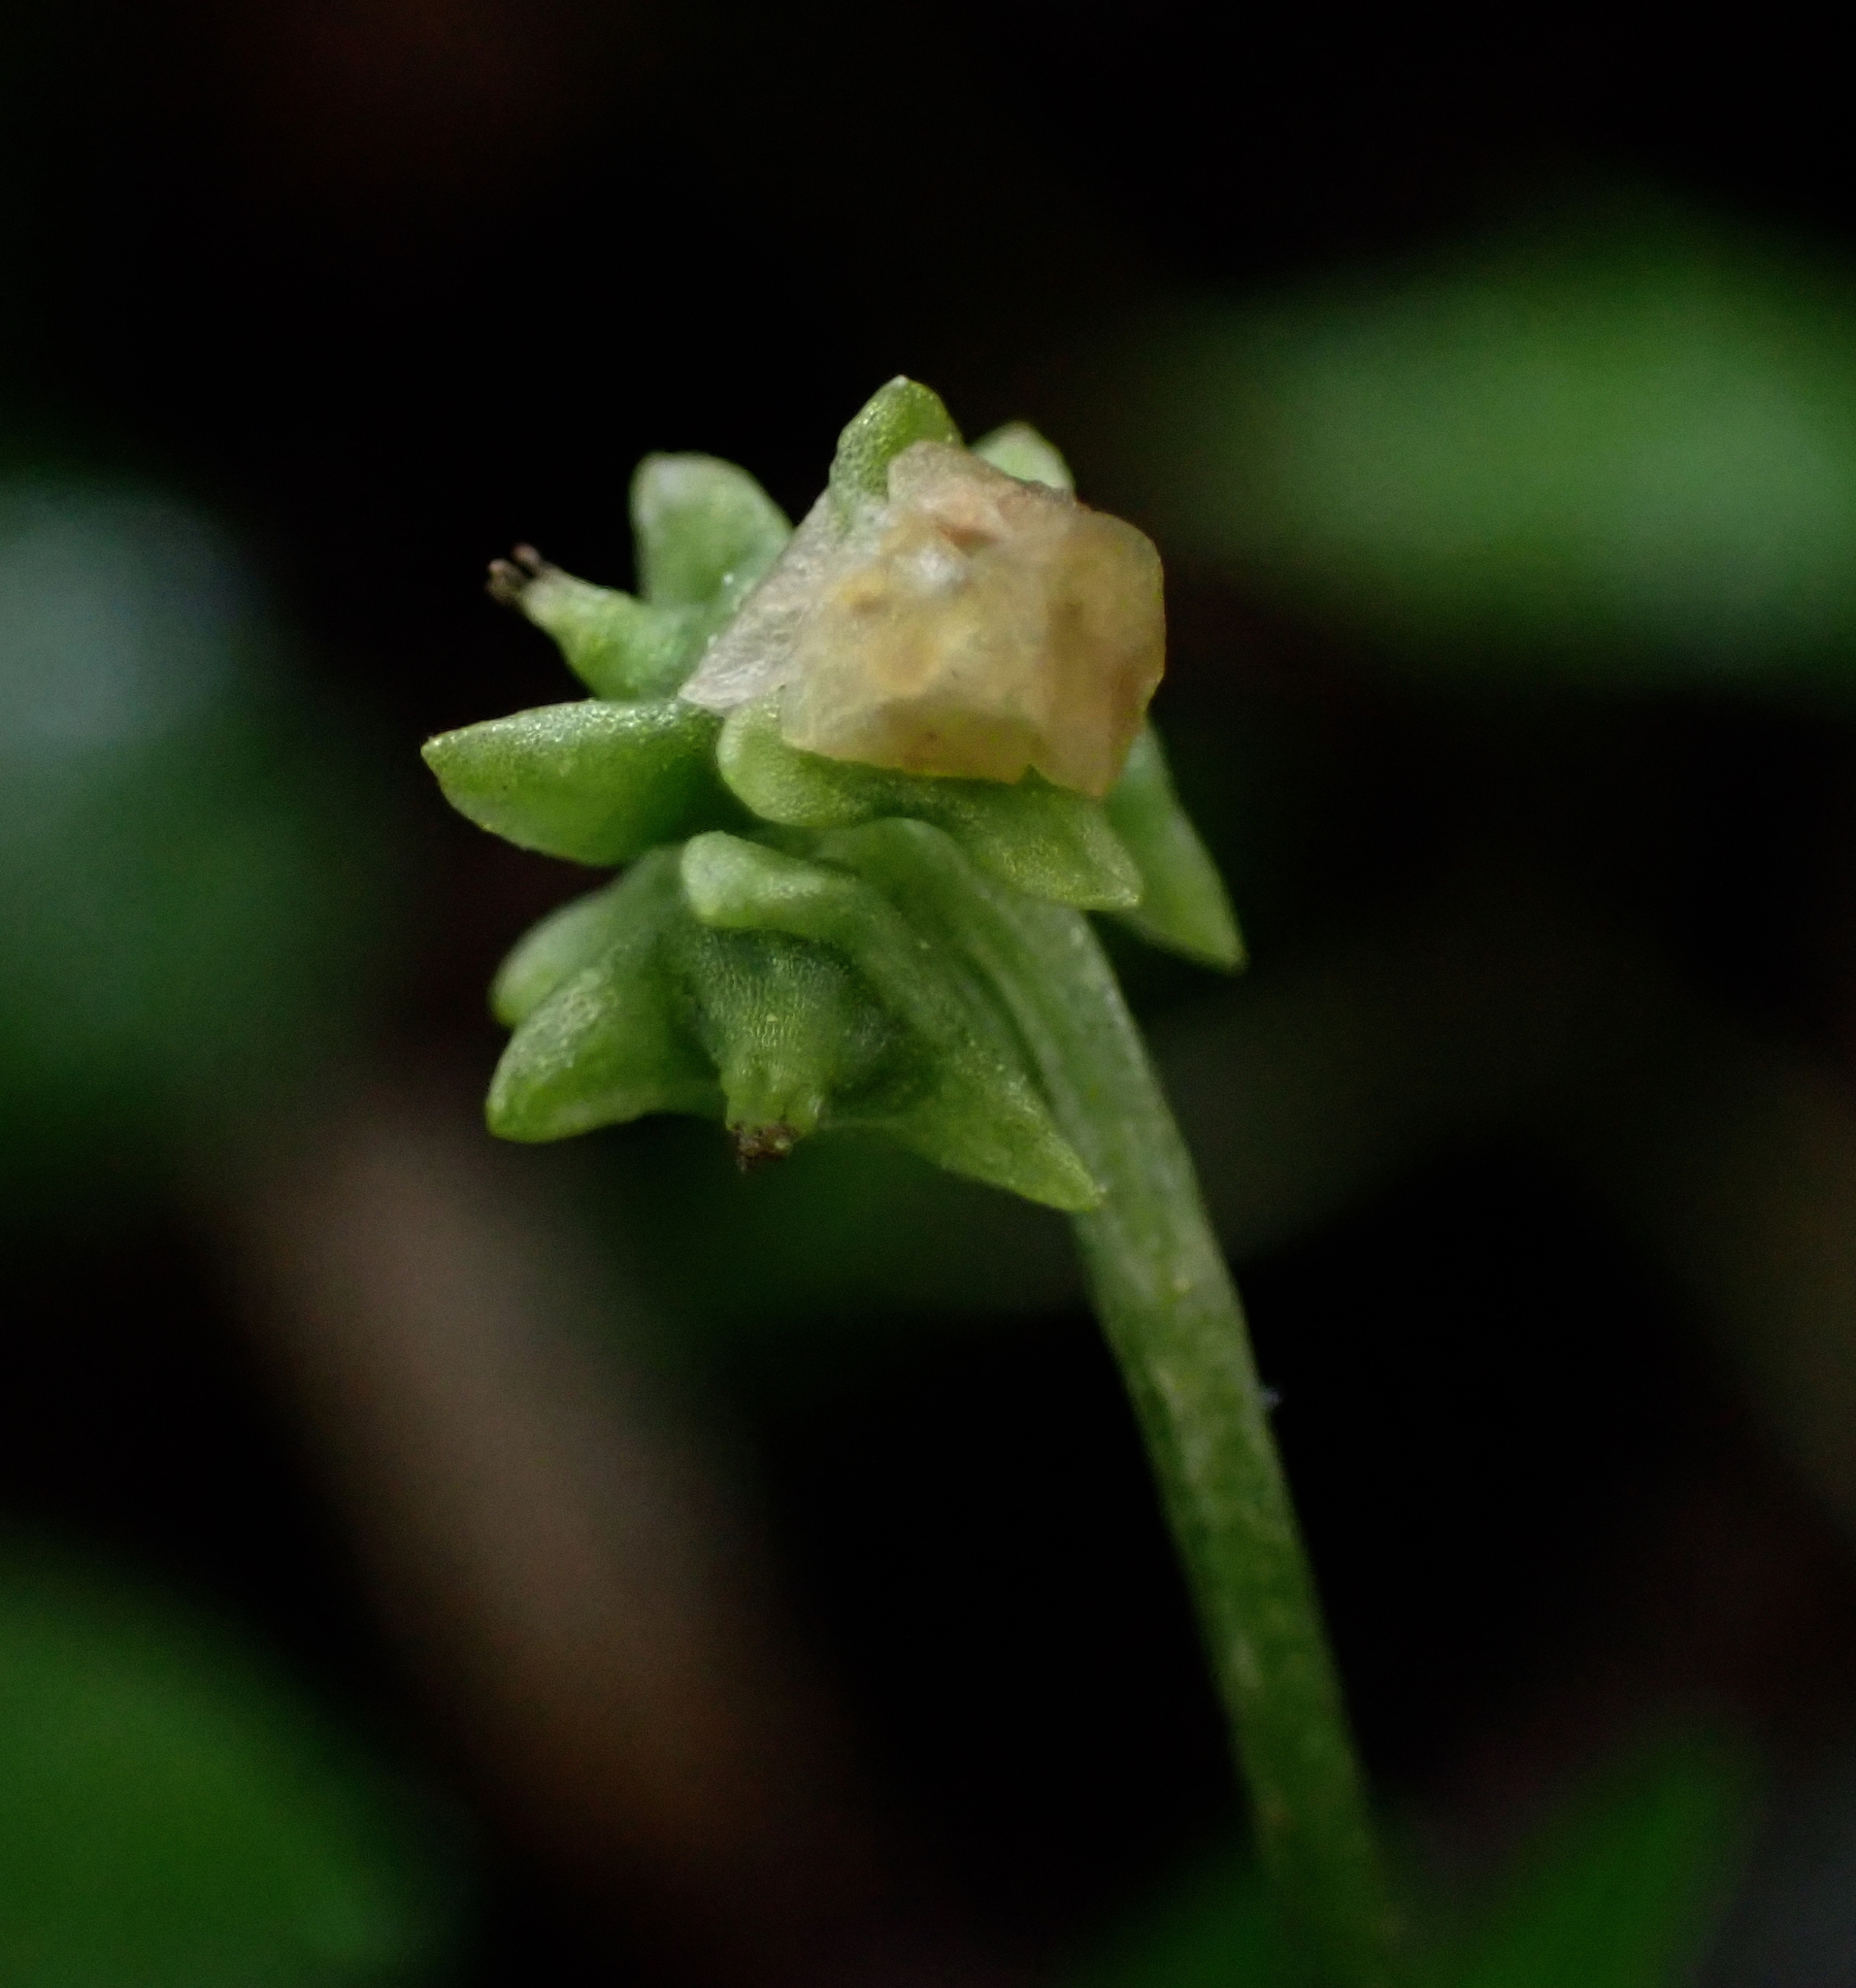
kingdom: Plantae
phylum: Tracheophyta
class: Magnoliopsida
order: Dipsacales
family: Viburnaceae
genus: Adoxa
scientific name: Adoxa moschatellina
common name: Moschatel
